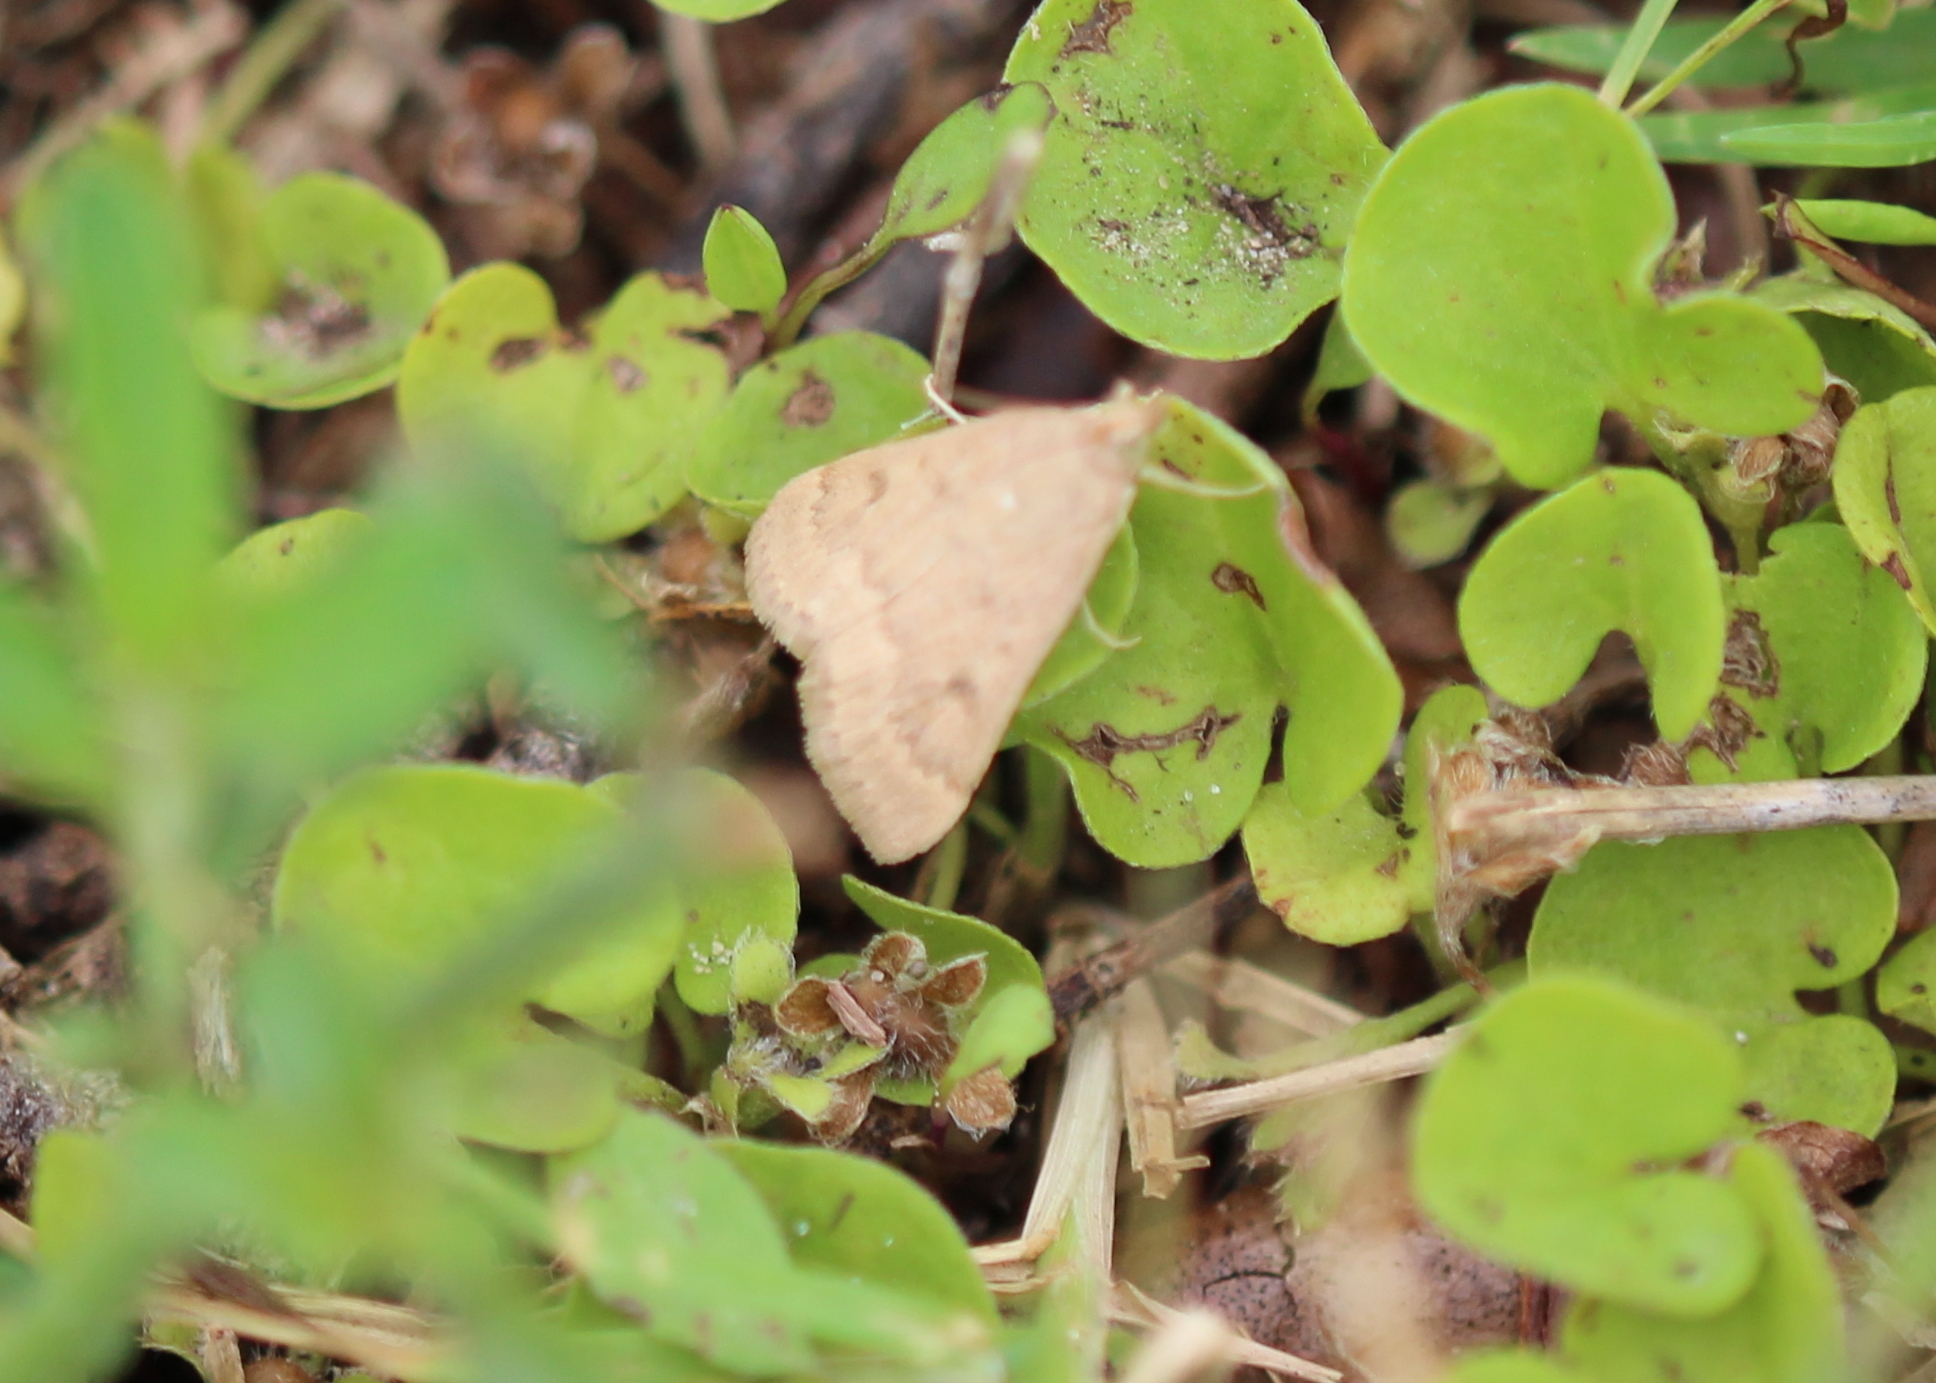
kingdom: Animalia
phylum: Arthropoda
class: Insecta
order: Lepidoptera
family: Crambidae
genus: Achyra
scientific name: Achyra rantalis
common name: Garden webworm
